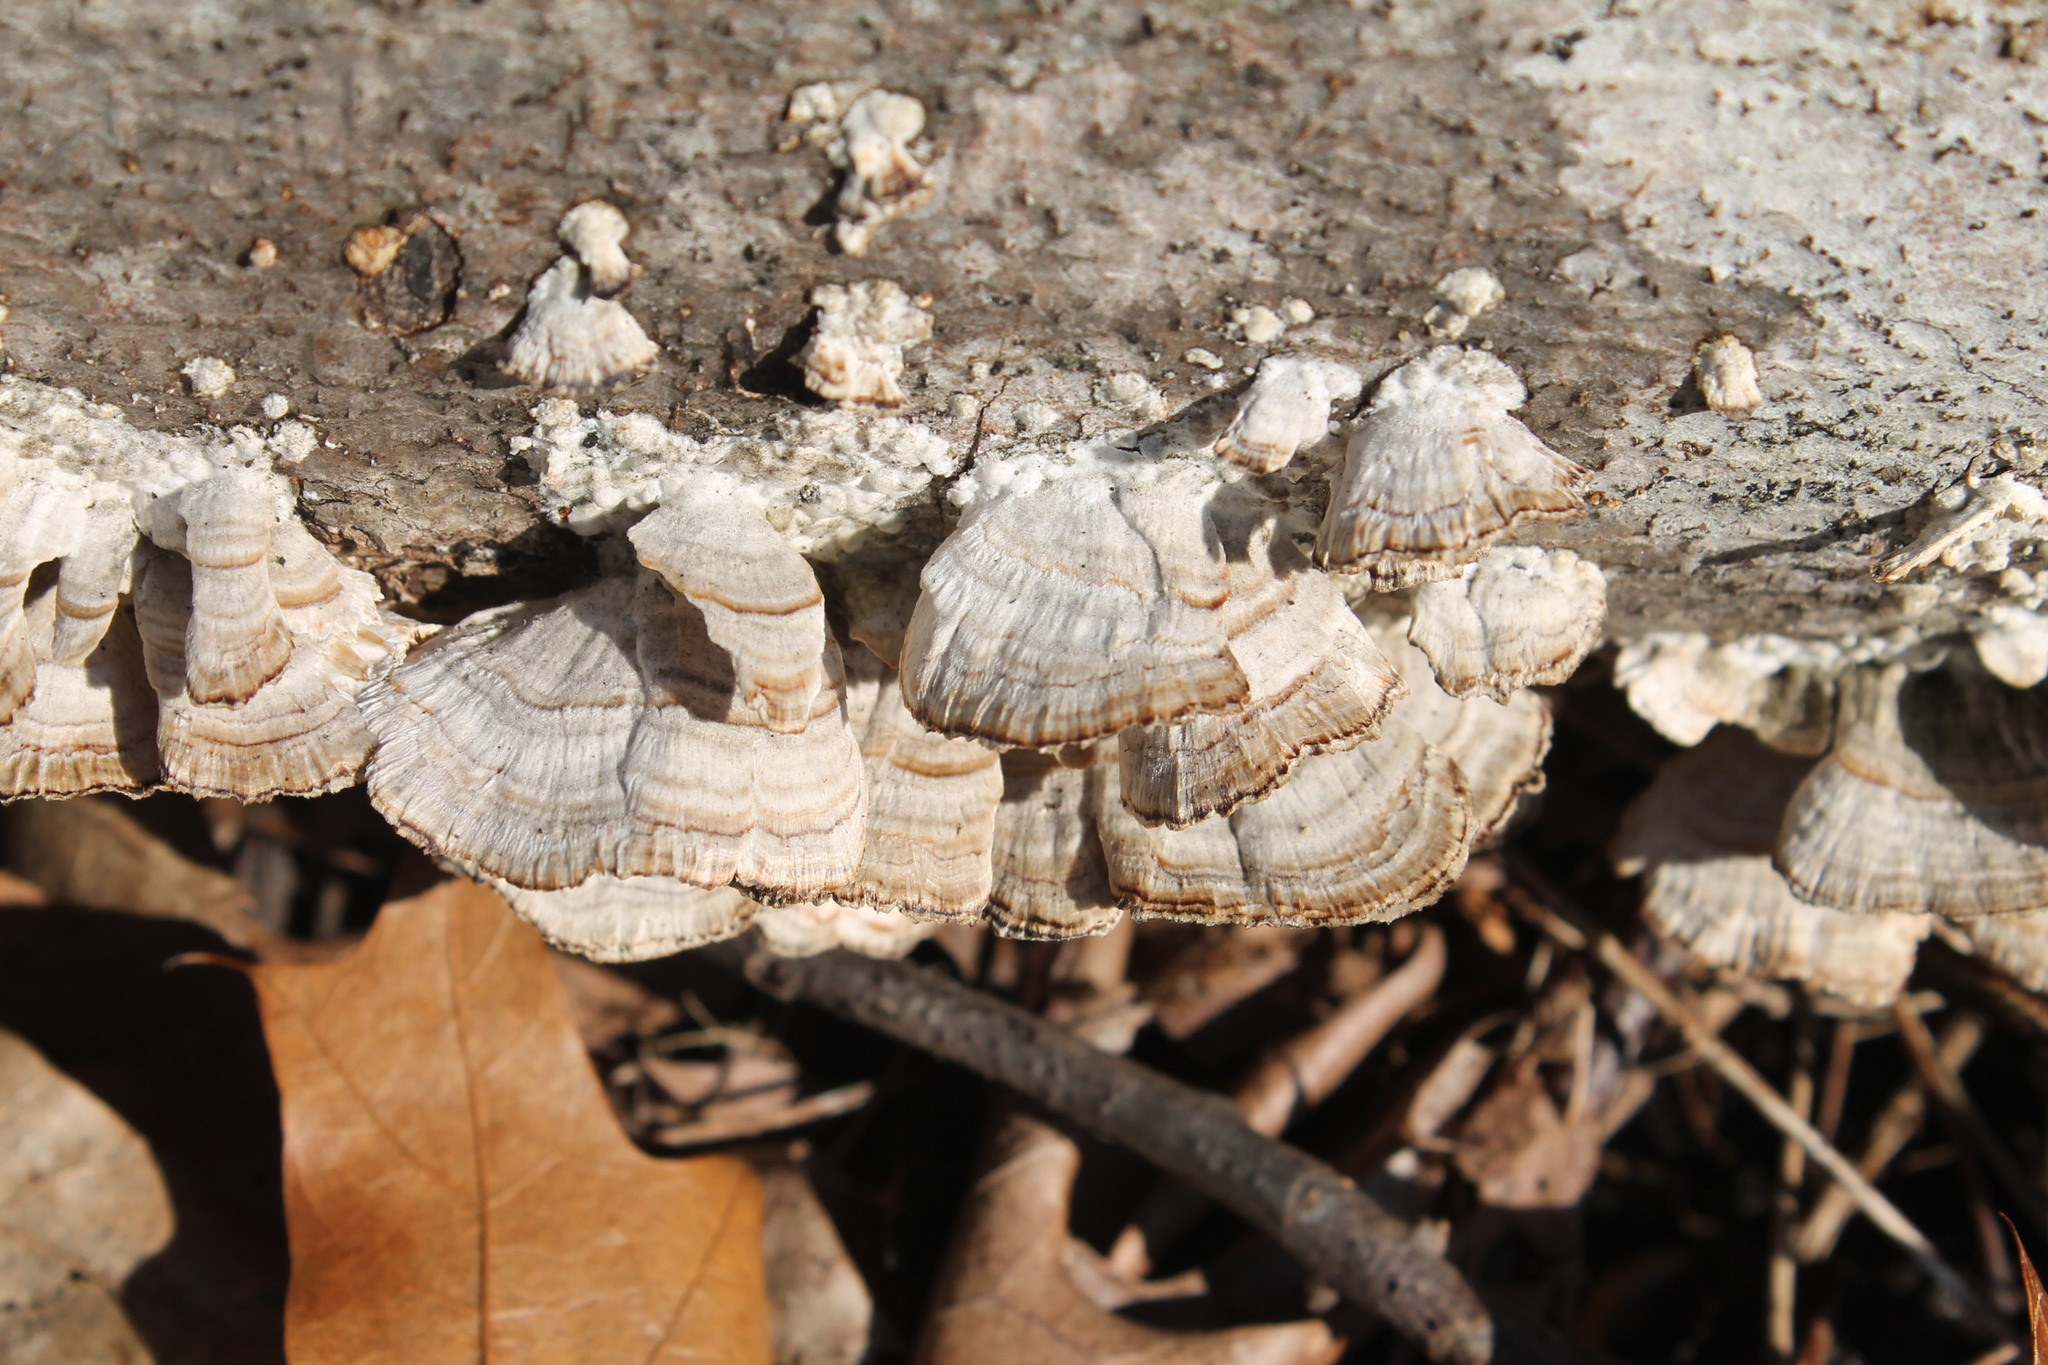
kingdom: Fungi
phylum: Basidiomycota
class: Agaricomycetes
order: Hymenochaetales
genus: Trichaptum
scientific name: Trichaptum biforme
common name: Violet-toothed polypore
